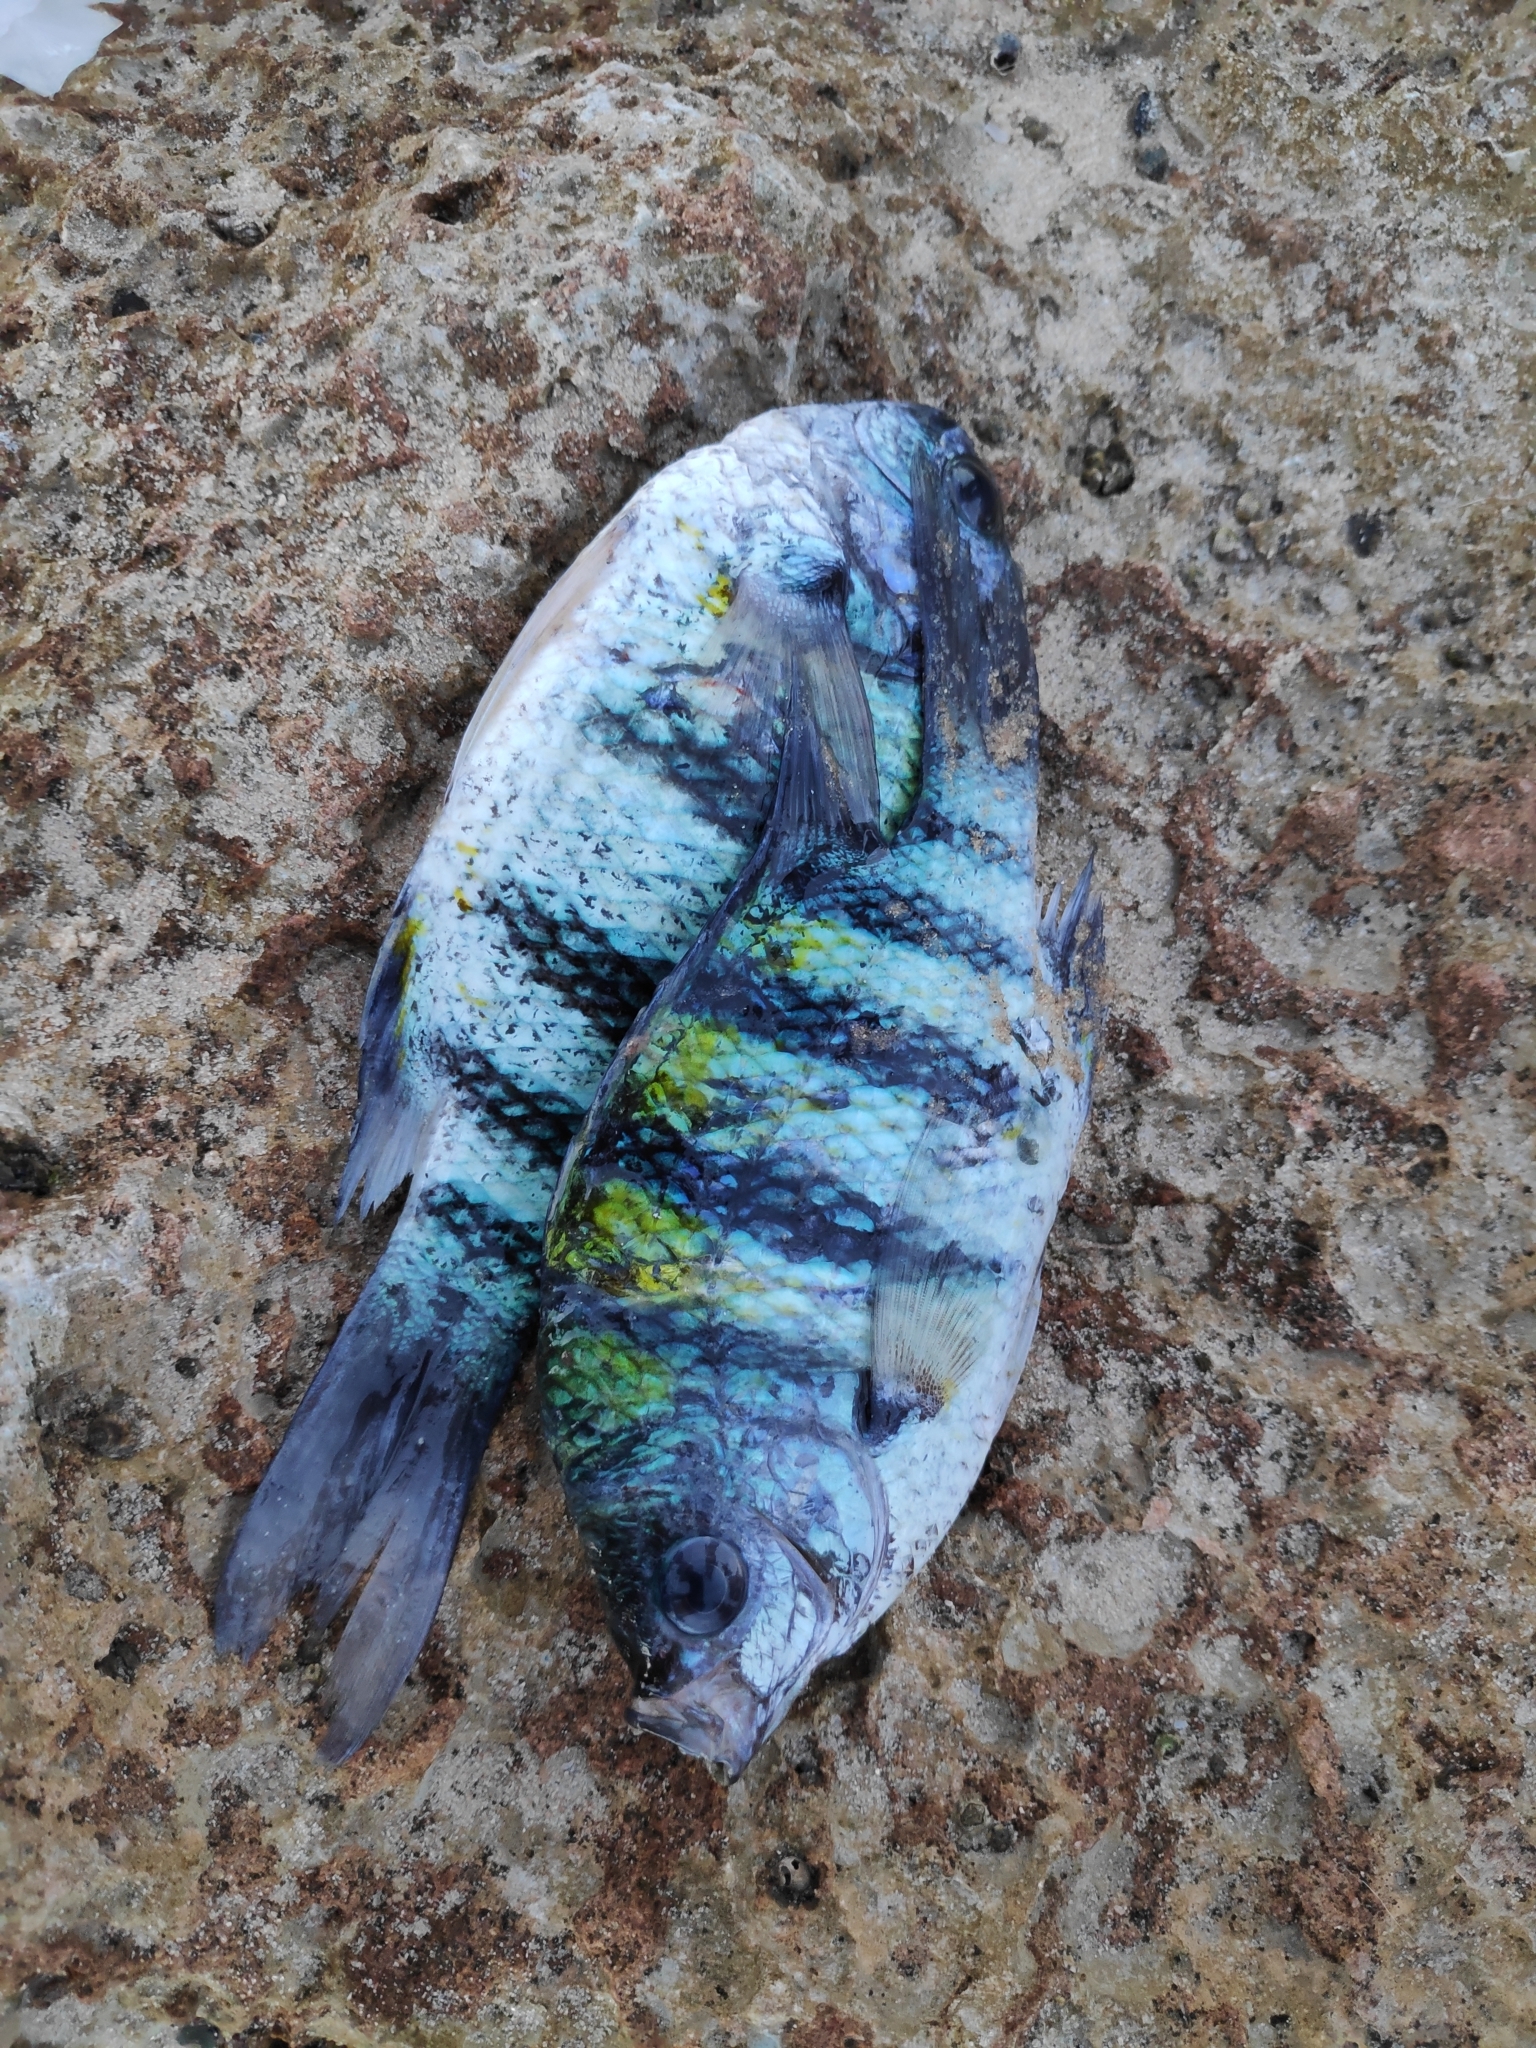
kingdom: Animalia
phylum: Chordata
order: Perciformes
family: Pomacentridae
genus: Abudefduf
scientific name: Abudefduf vaigiensis
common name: Indo-pacific sergeant
